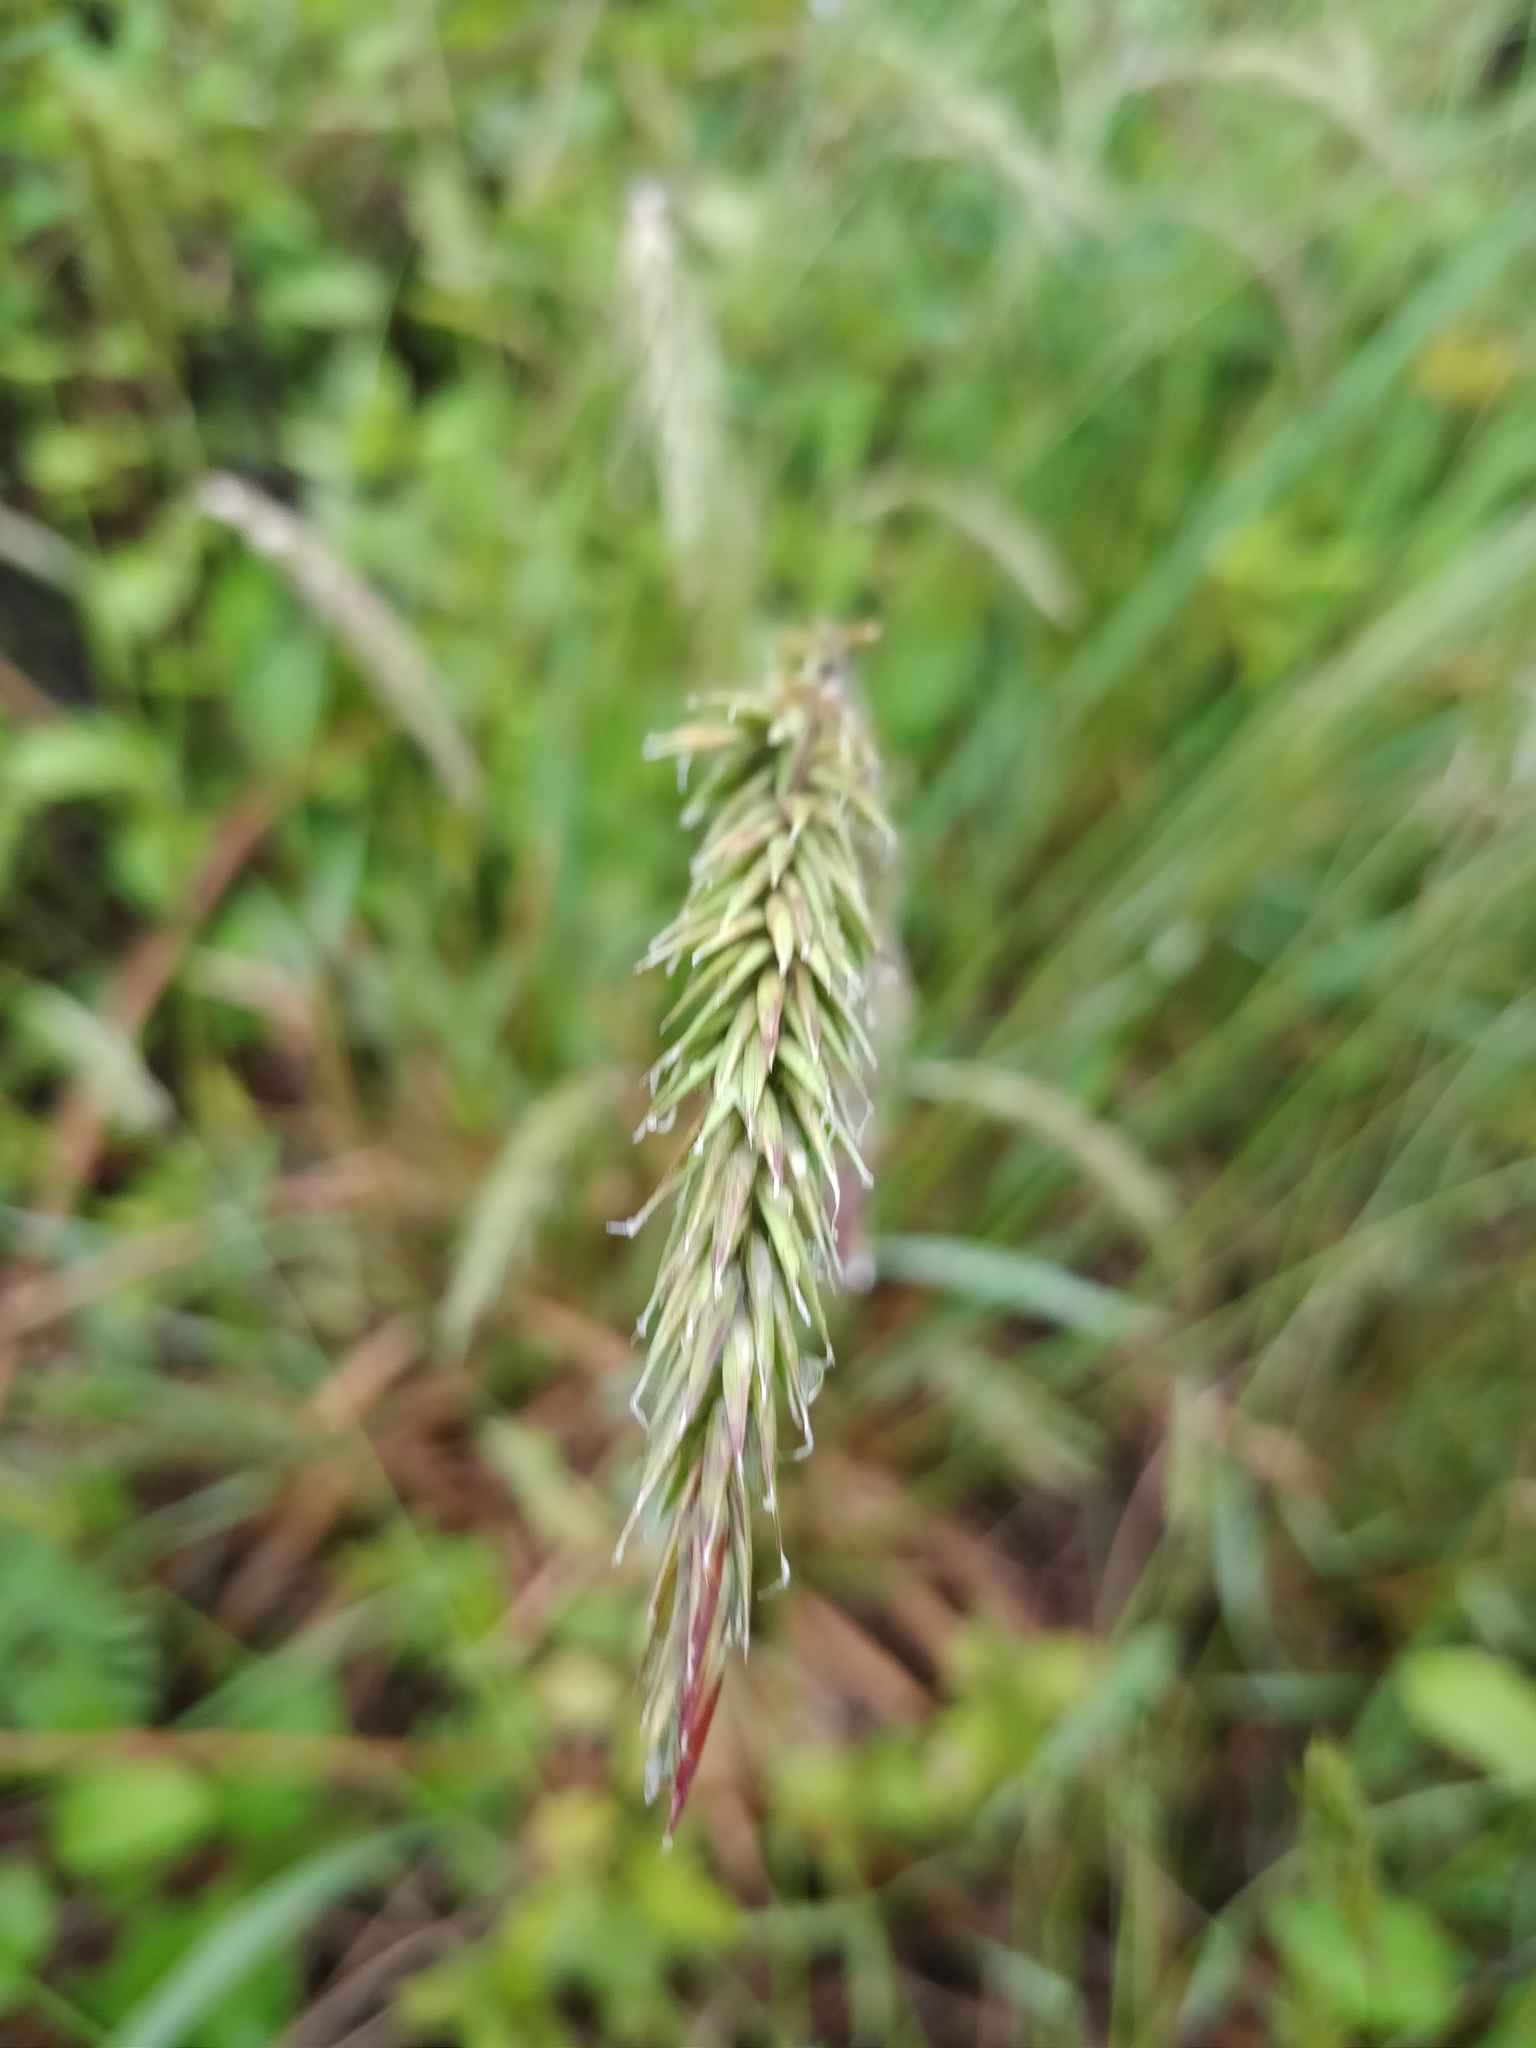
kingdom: Plantae
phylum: Tracheophyta
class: Liliopsida
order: Poales
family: Poaceae
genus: Anthoxanthum
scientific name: Anthoxanthum odoratum
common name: Sweet vernalgrass
